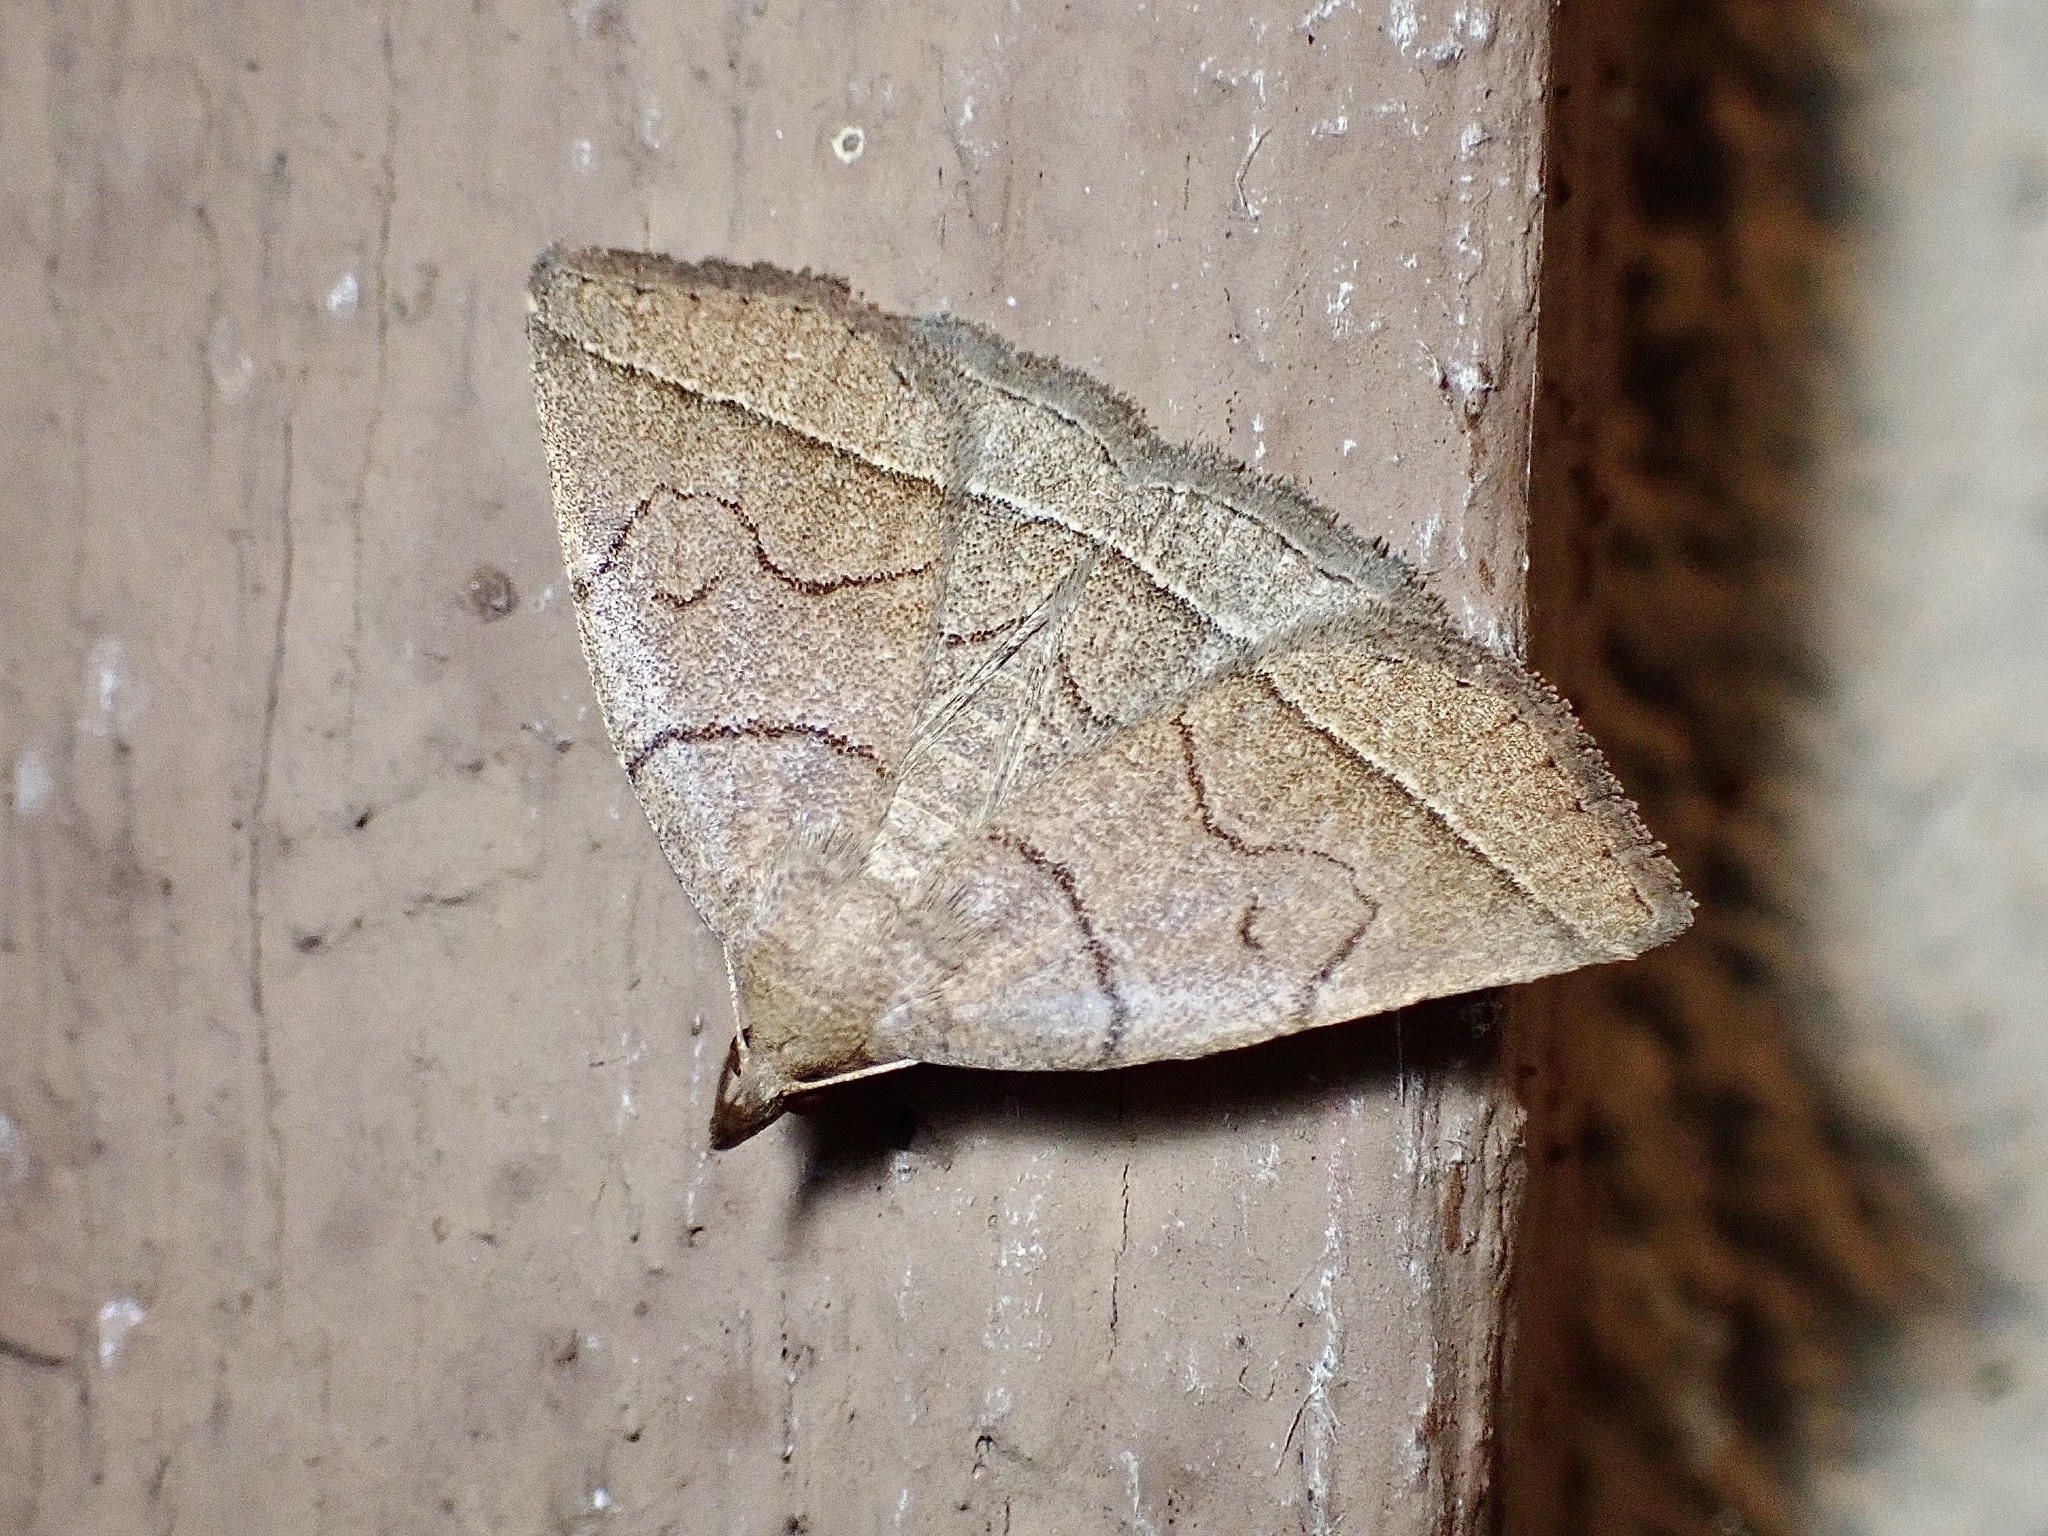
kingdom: Animalia
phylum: Arthropoda
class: Insecta
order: Lepidoptera
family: Erebidae
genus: Zanclognatha
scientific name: Zanclognatha cruralis
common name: Early fan-foot
